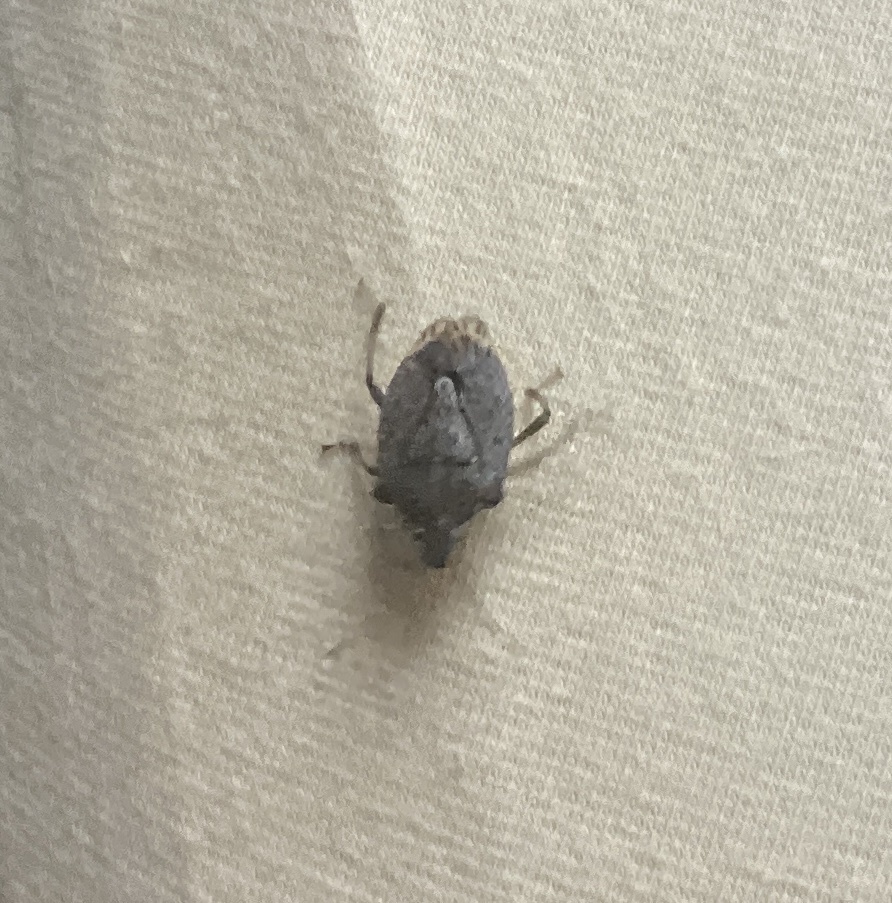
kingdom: Animalia
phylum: Arthropoda
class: Insecta
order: Hemiptera
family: Pentatomidae
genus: Halyomorpha
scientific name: Halyomorpha halys
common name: Brown marmorated stink bug
